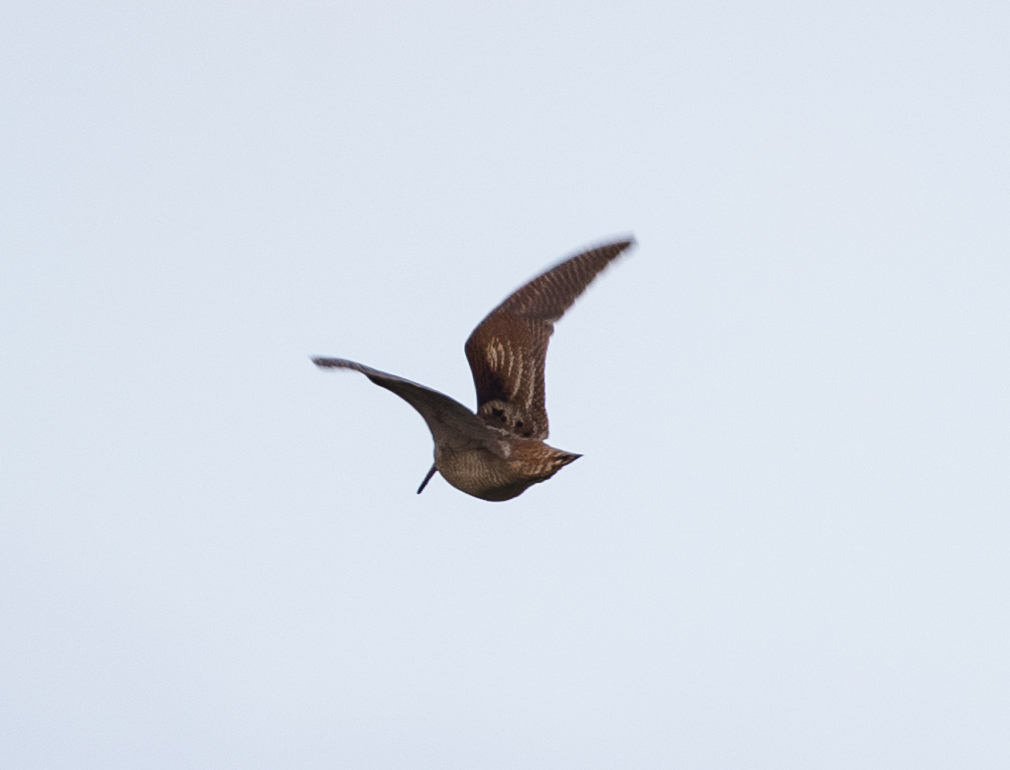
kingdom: Animalia
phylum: Chordata
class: Aves
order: Charadriiformes
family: Scolopacidae
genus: Scolopax
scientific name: Scolopax rusticola
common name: Eurasian woodcock
